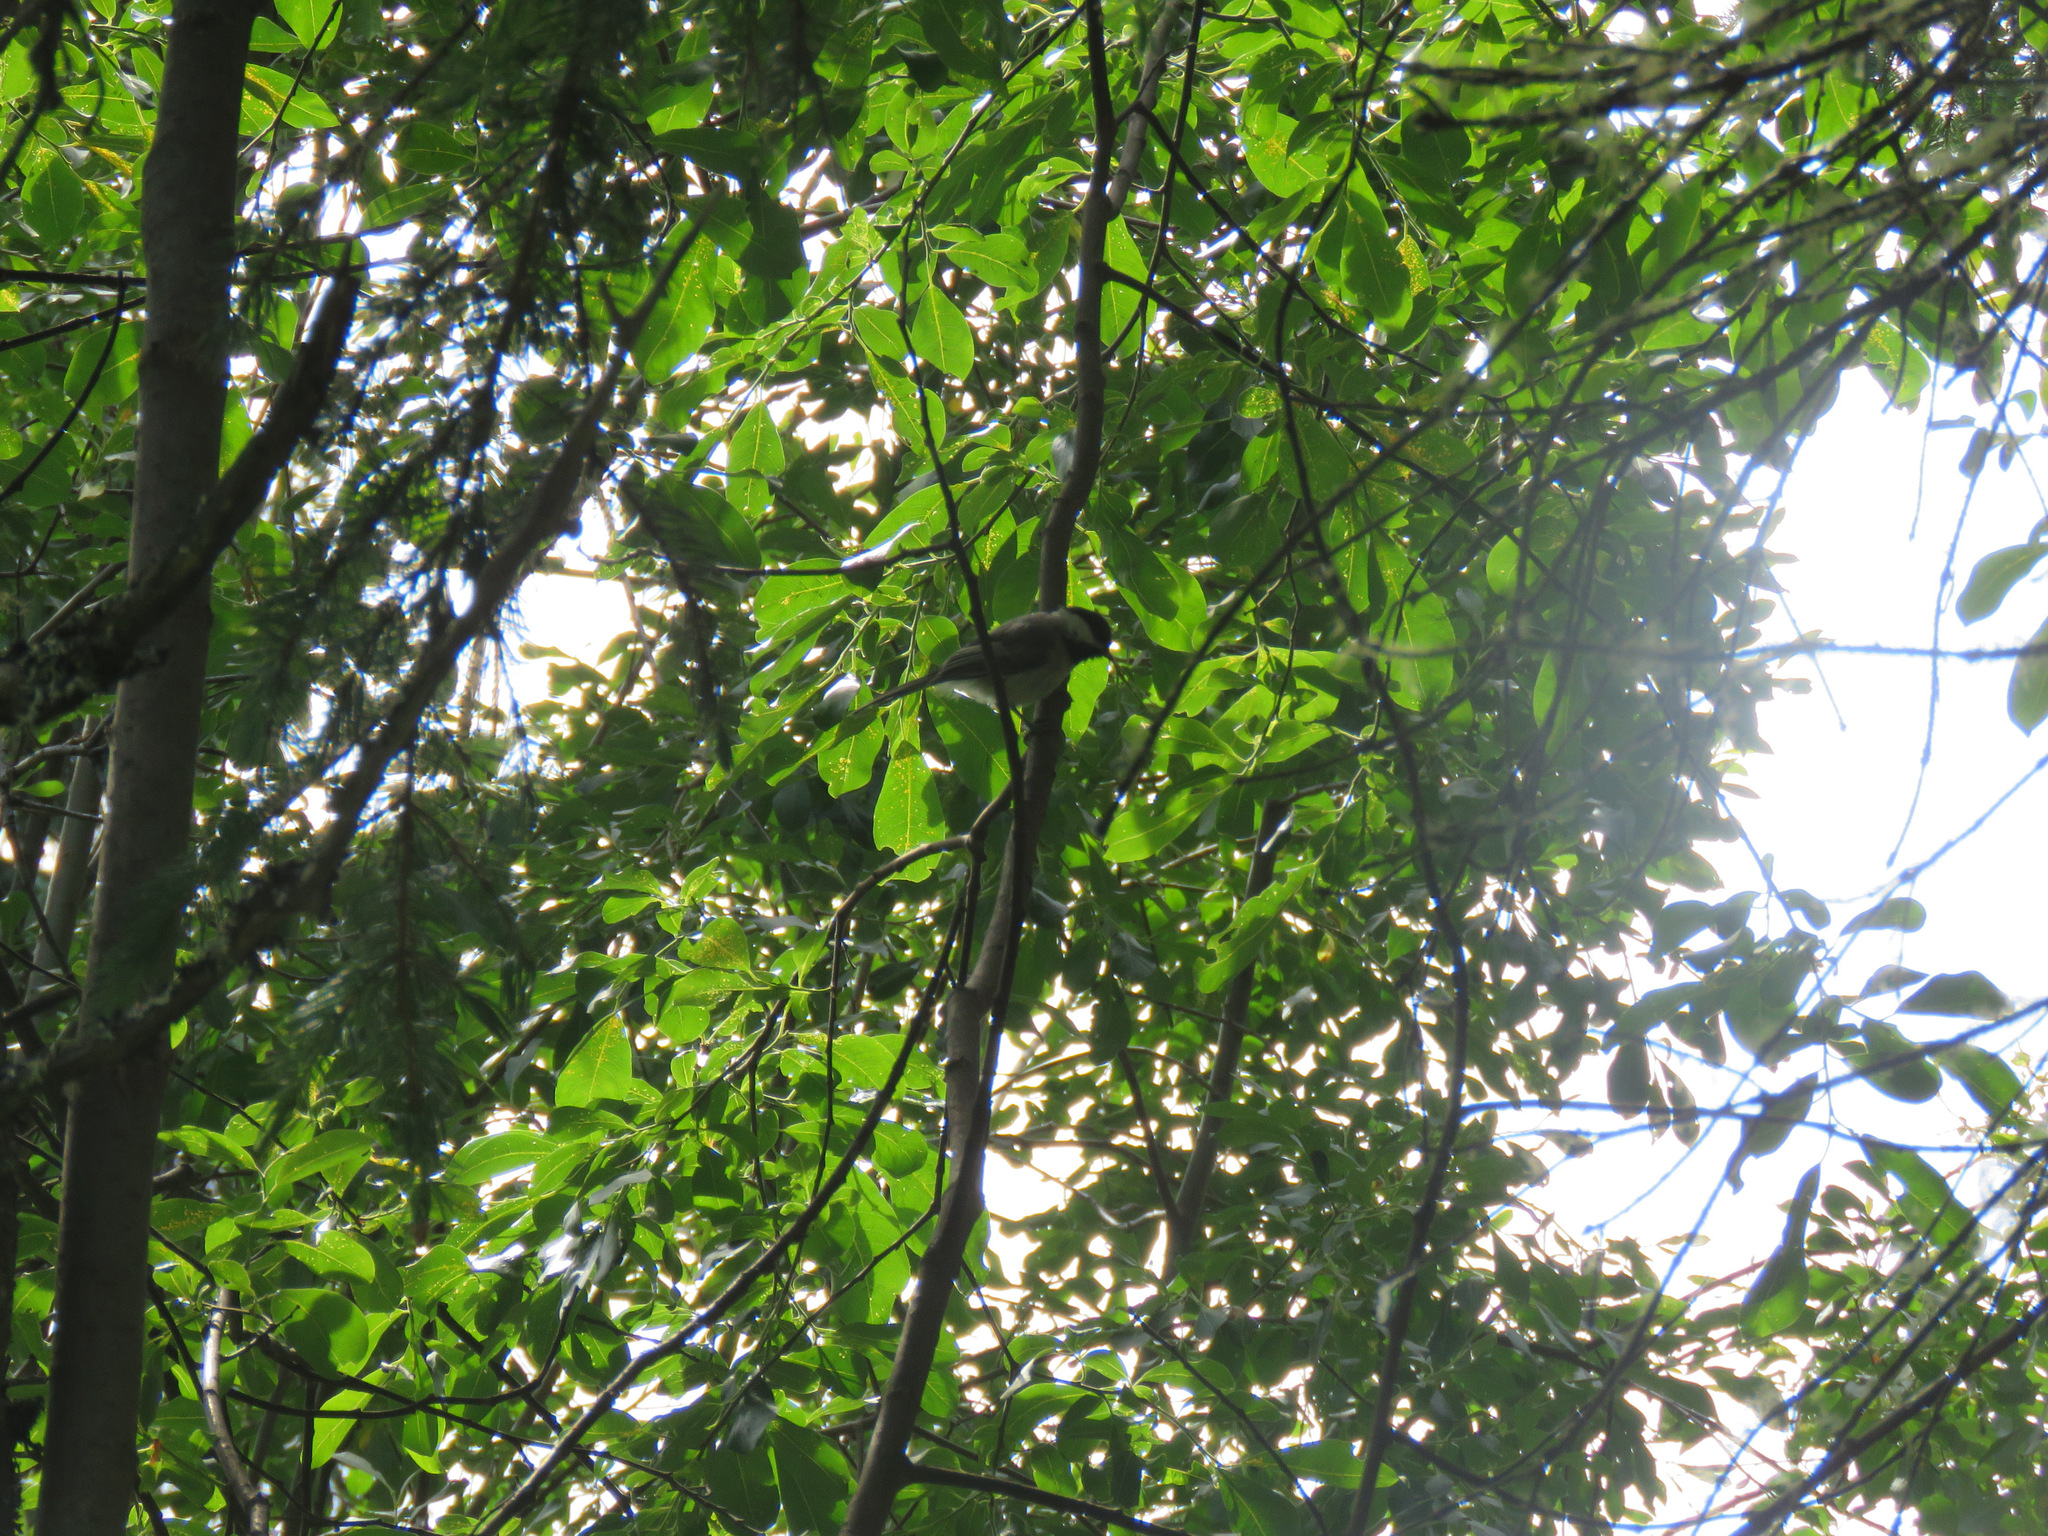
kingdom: Animalia
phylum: Chordata
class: Aves
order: Passeriformes
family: Paridae
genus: Poecile
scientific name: Poecile atricapillus
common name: Black-capped chickadee
